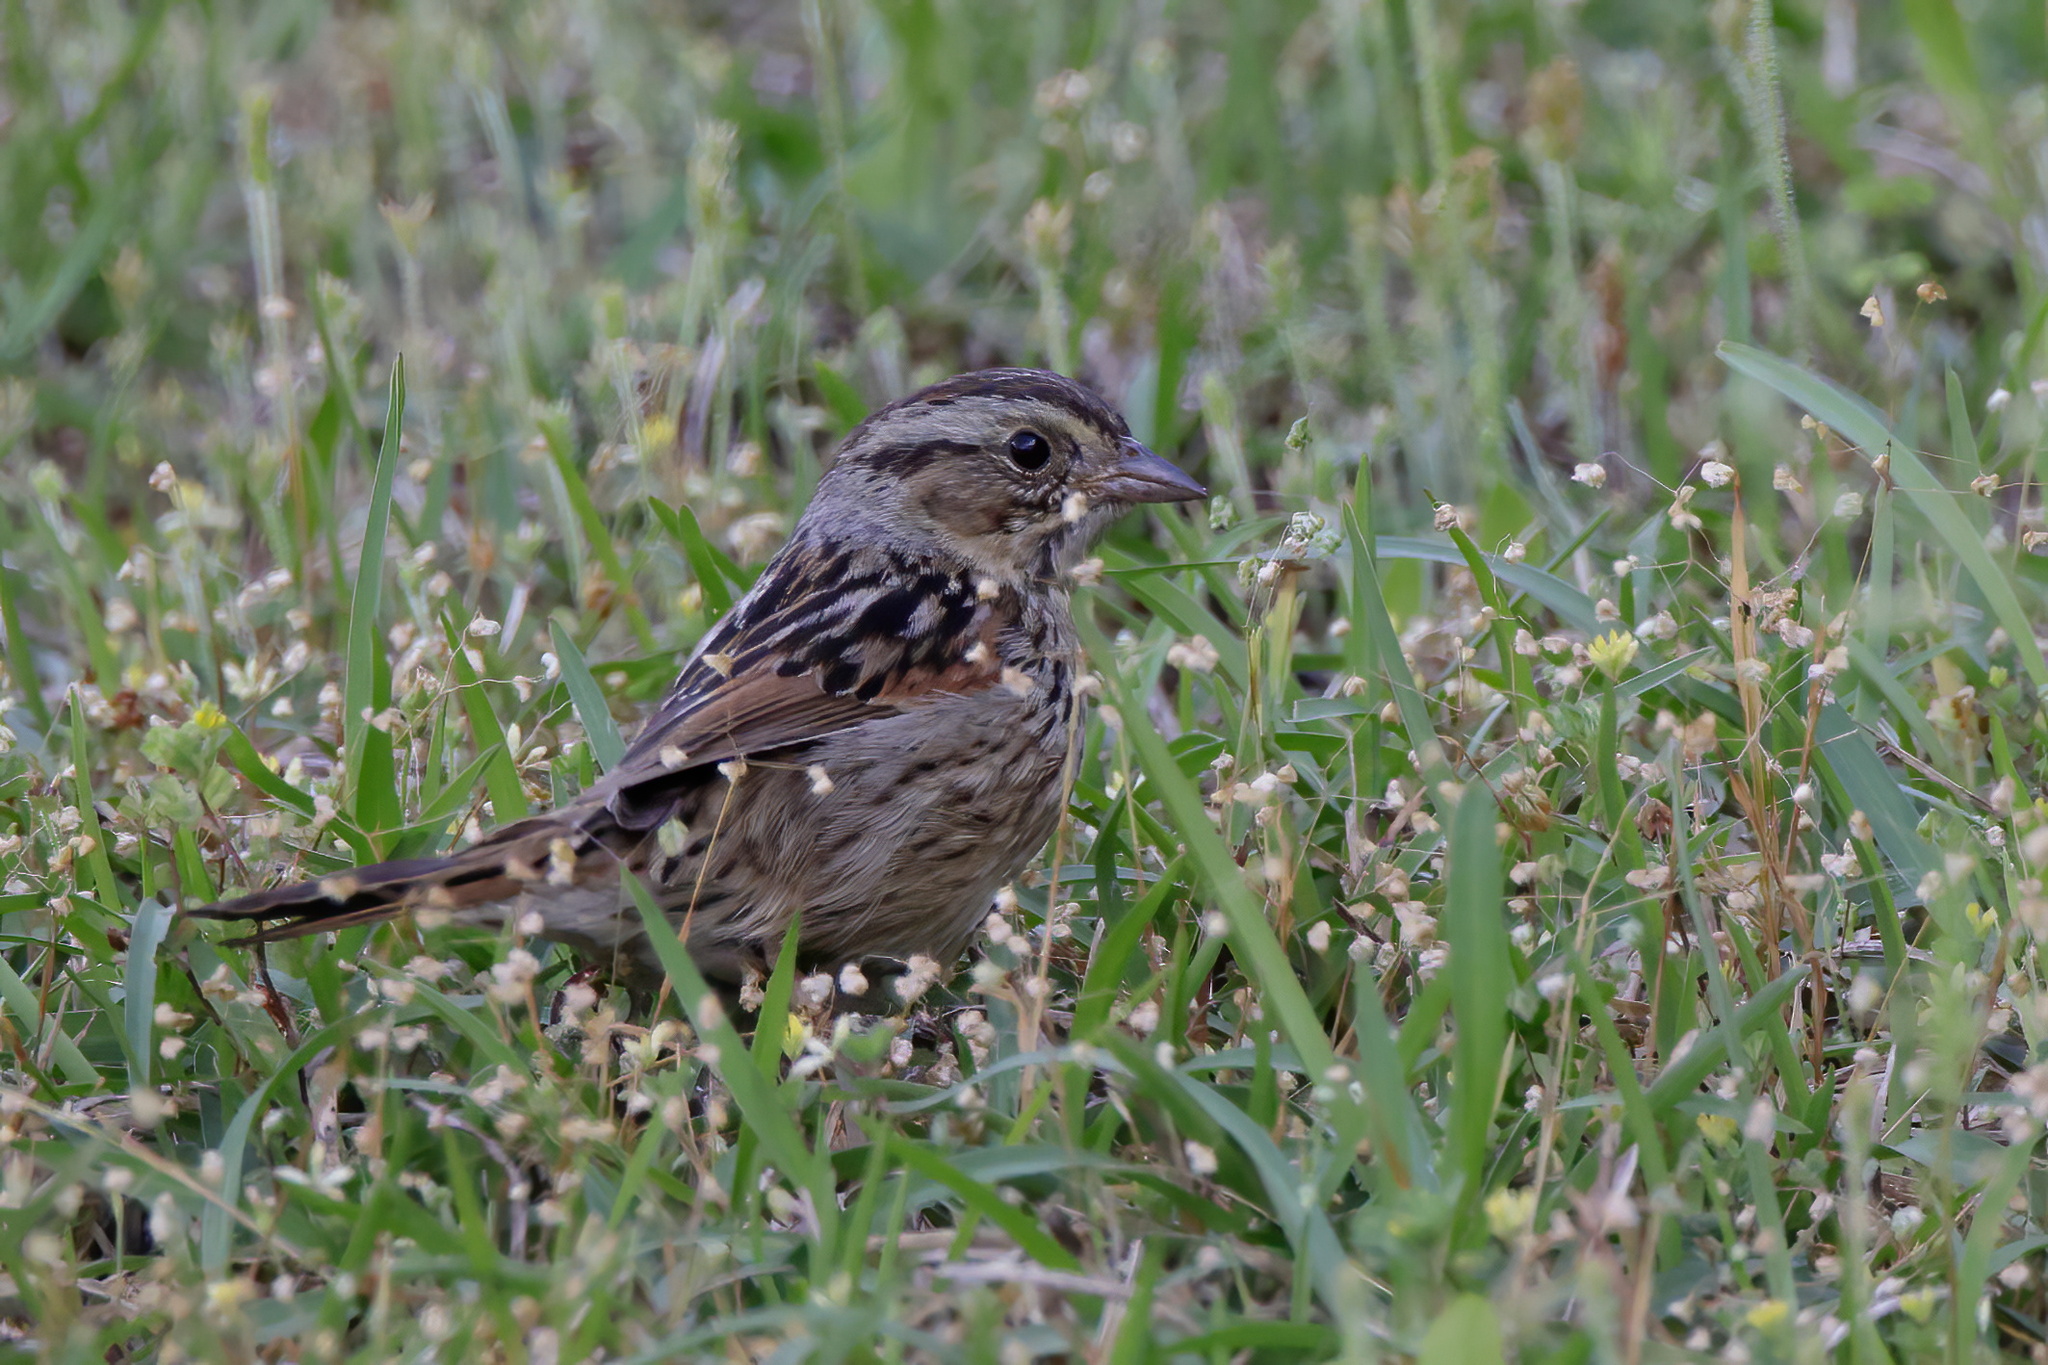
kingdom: Animalia
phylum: Chordata
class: Aves
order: Passeriformes
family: Passerellidae
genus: Melospiza
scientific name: Melospiza georgiana
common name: Swamp sparrow
